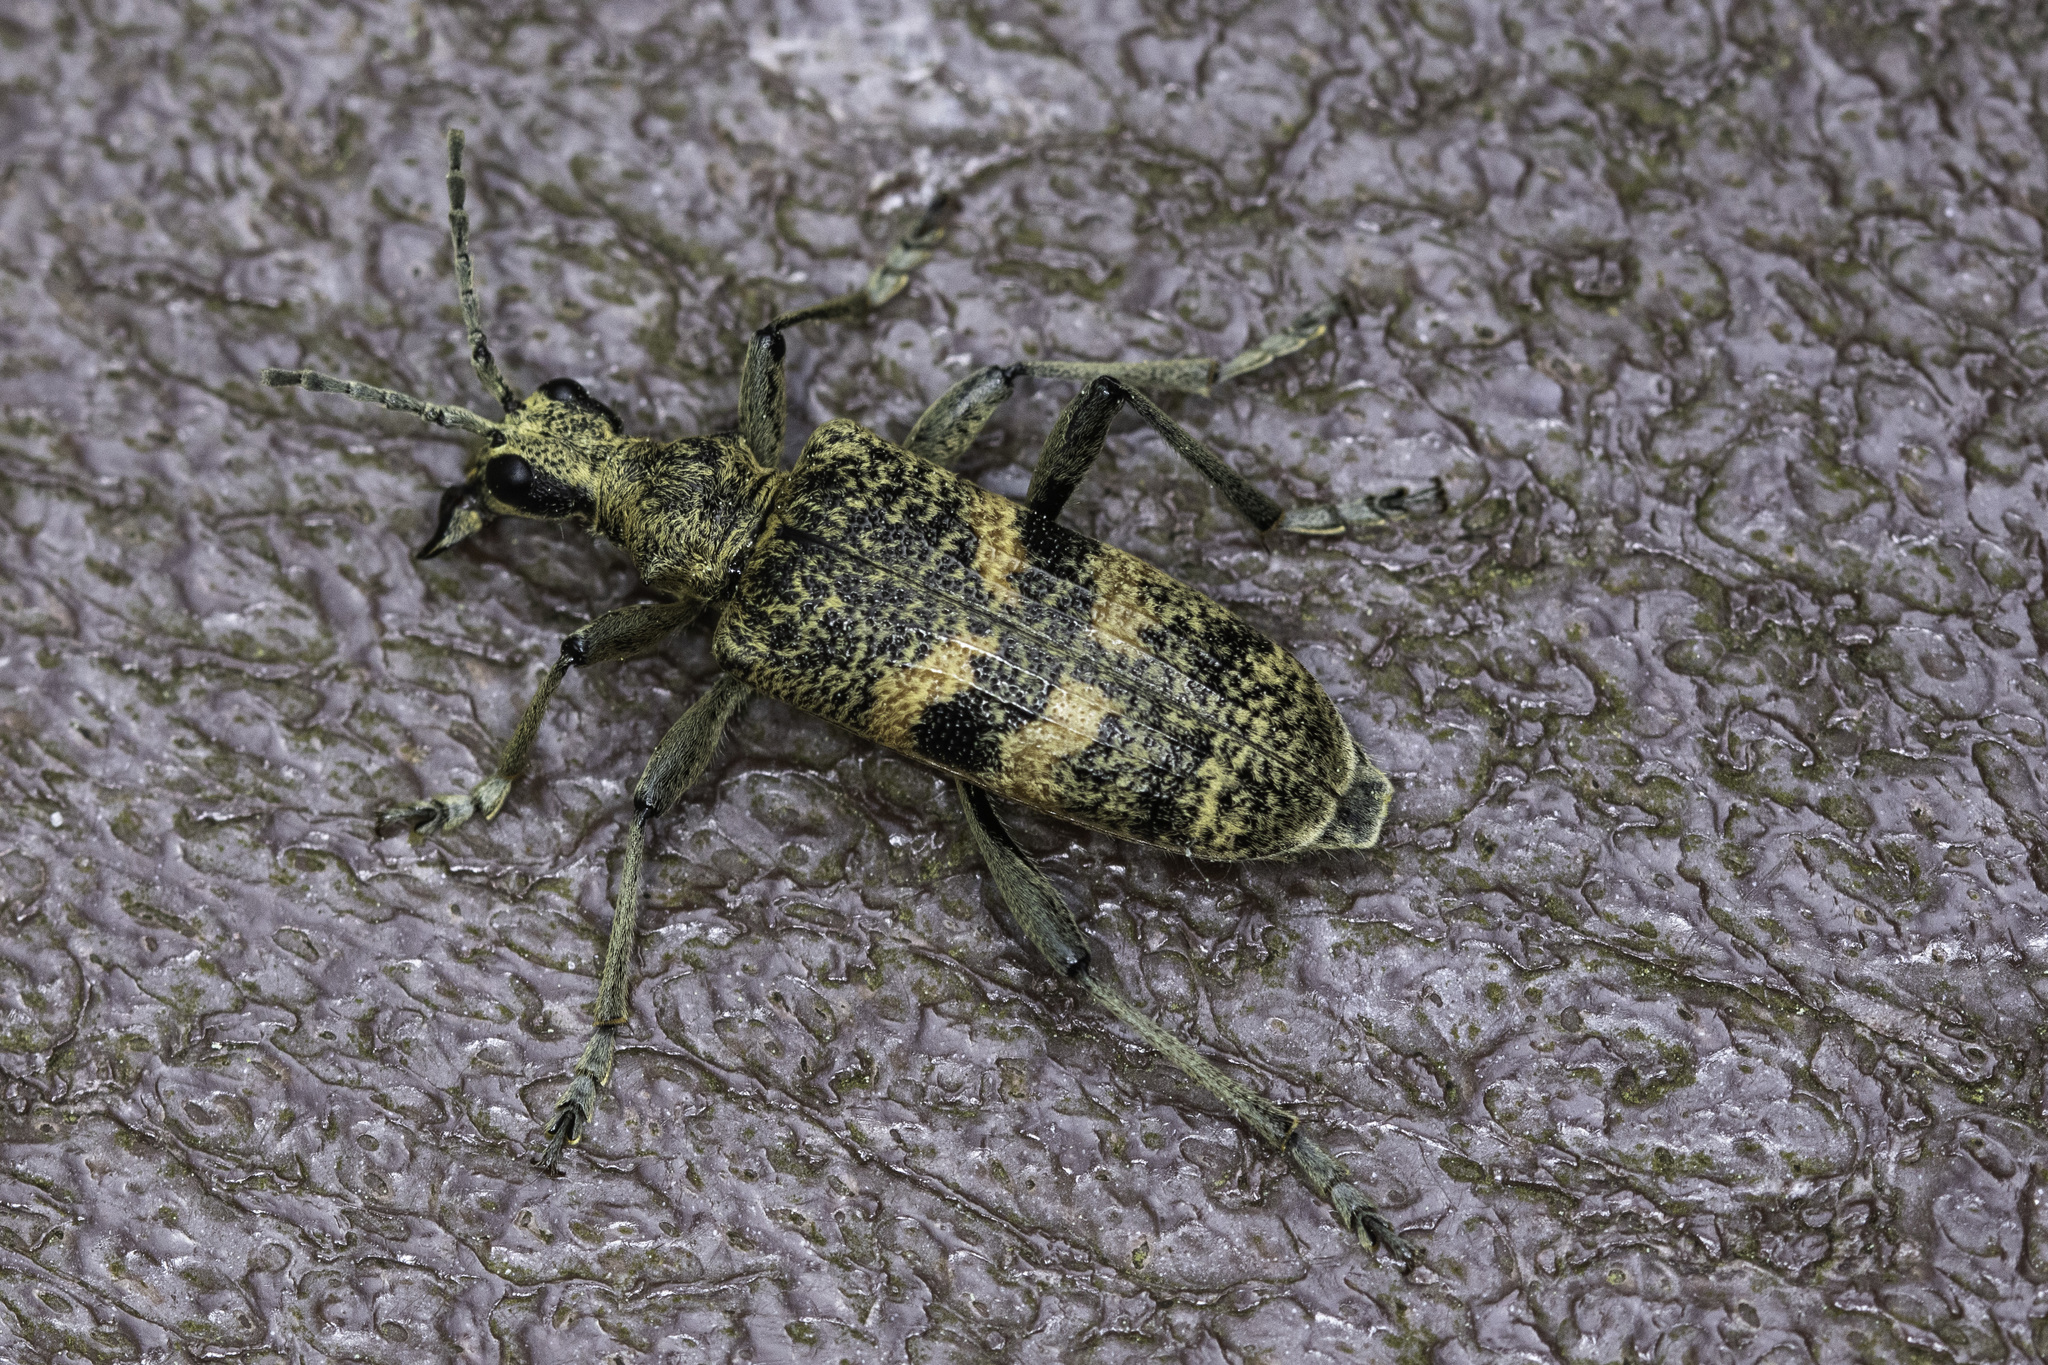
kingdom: Animalia
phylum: Arthropoda
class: Insecta
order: Coleoptera
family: Cerambycidae
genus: Rhagium
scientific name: Rhagium mordax
